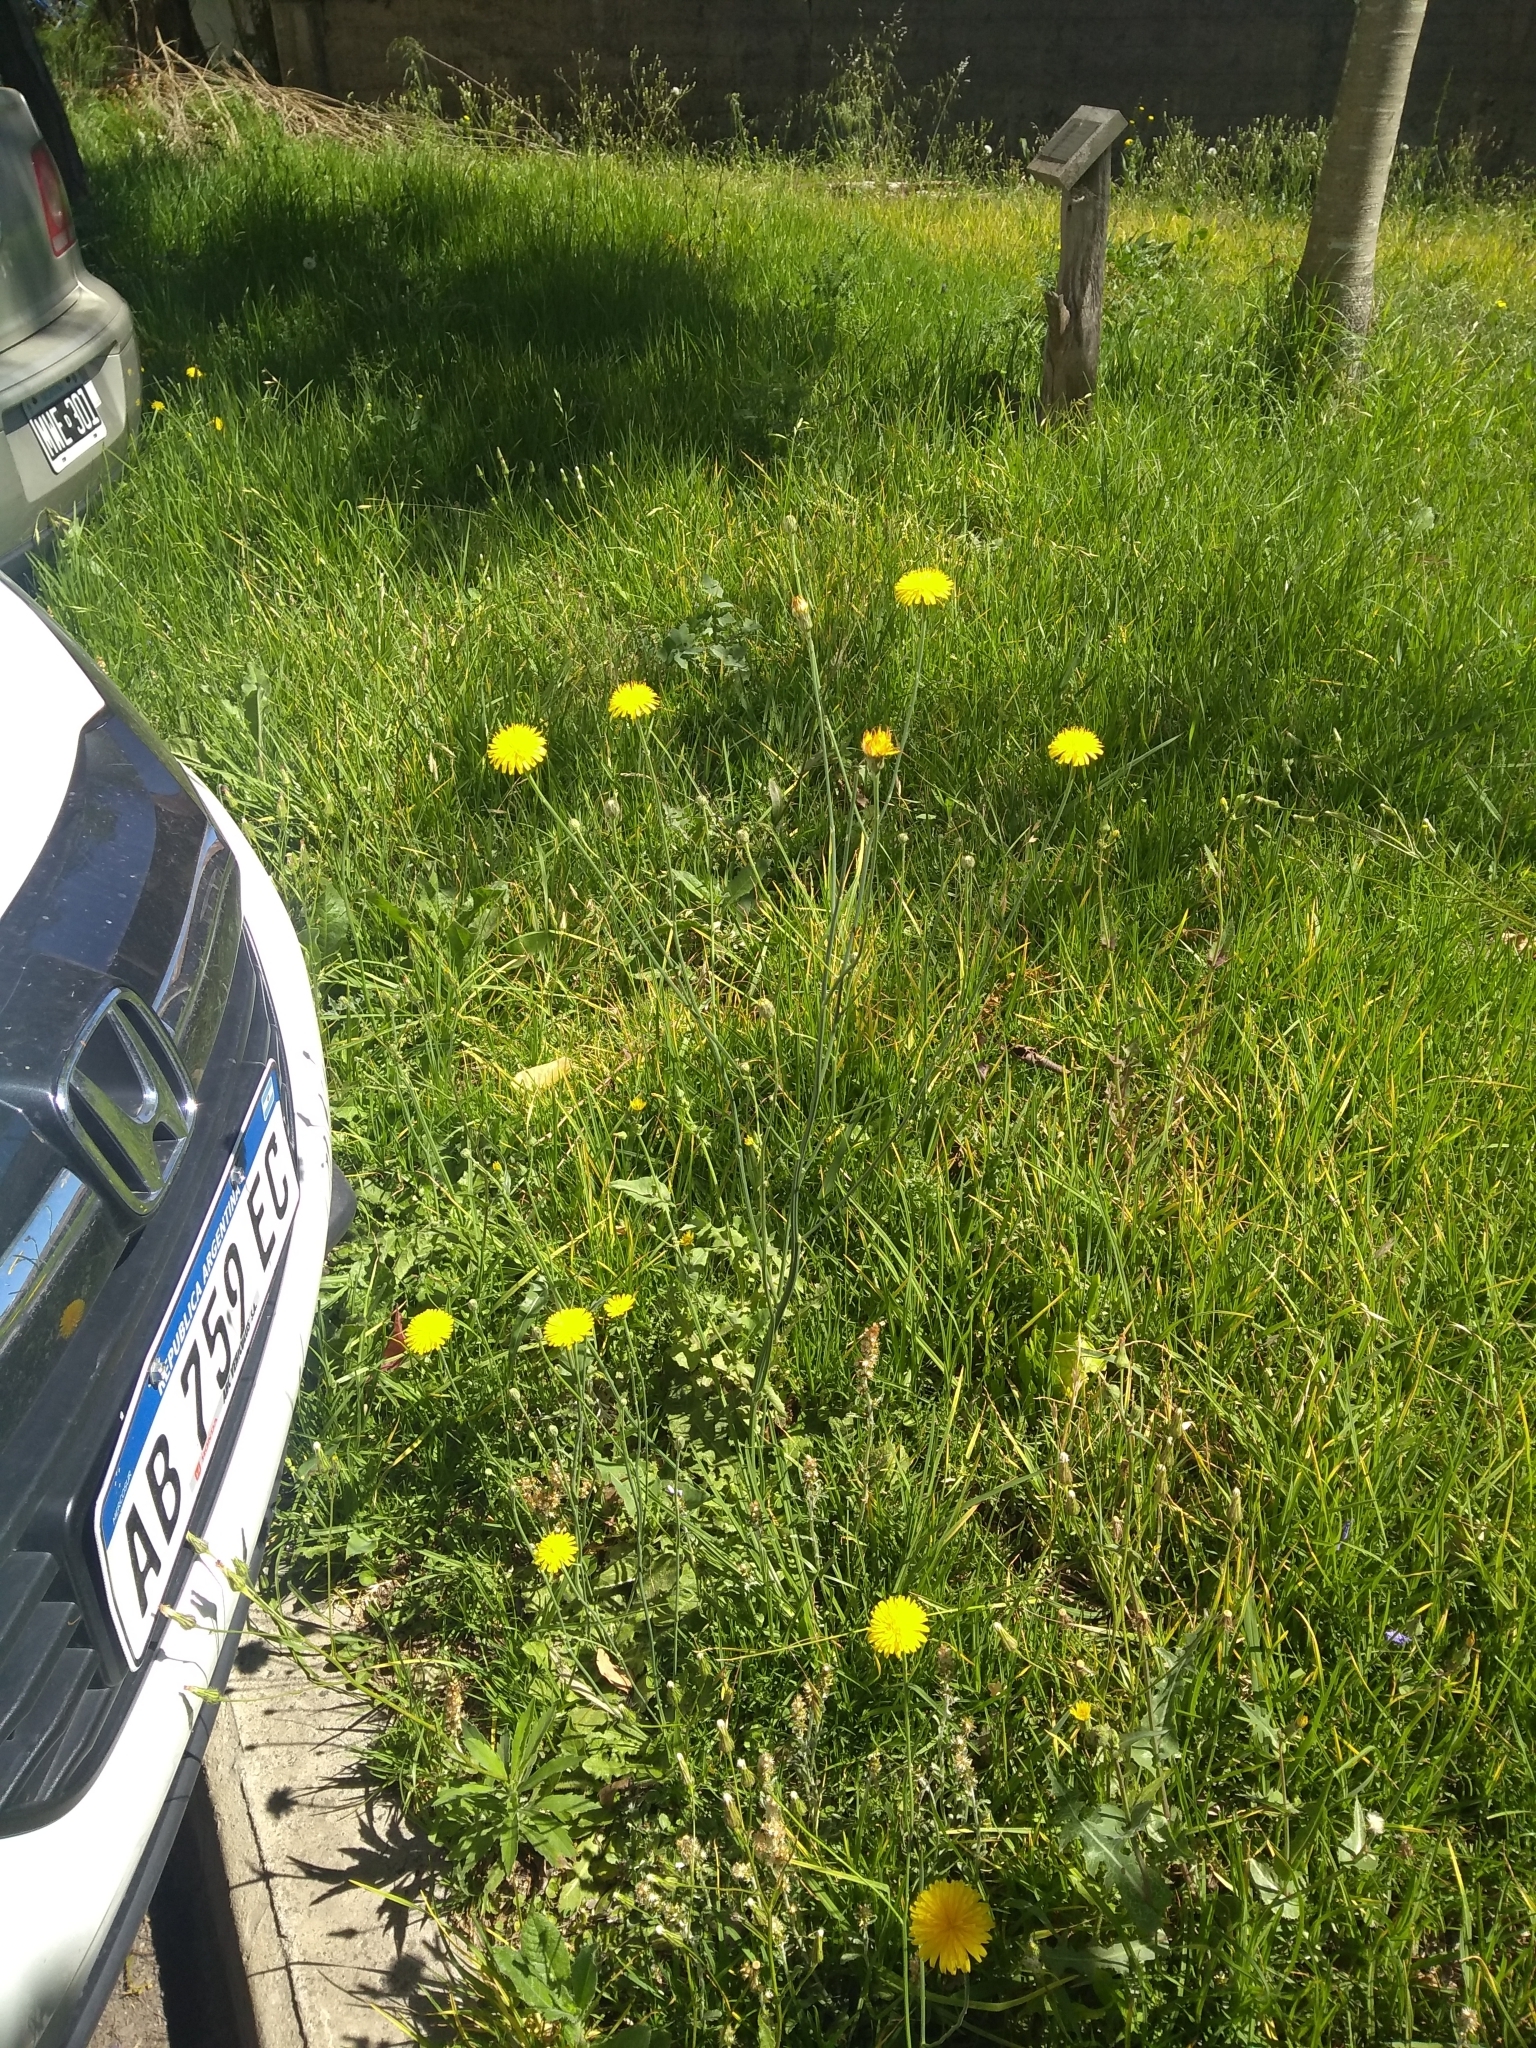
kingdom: Plantae
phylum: Tracheophyta
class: Magnoliopsida
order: Asterales
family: Asteraceae
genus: Hypochaeris
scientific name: Hypochaeris radicata
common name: Flatweed
